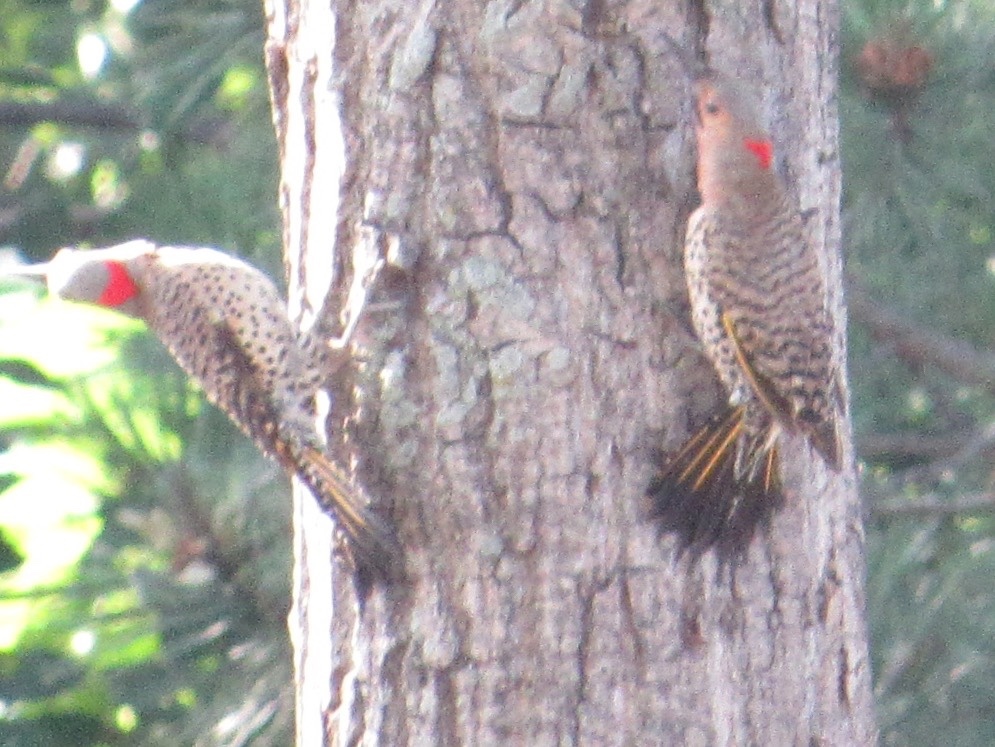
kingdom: Animalia
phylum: Chordata
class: Aves
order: Piciformes
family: Picidae
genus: Colaptes
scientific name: Colaptes auratus
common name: Northern flicker
